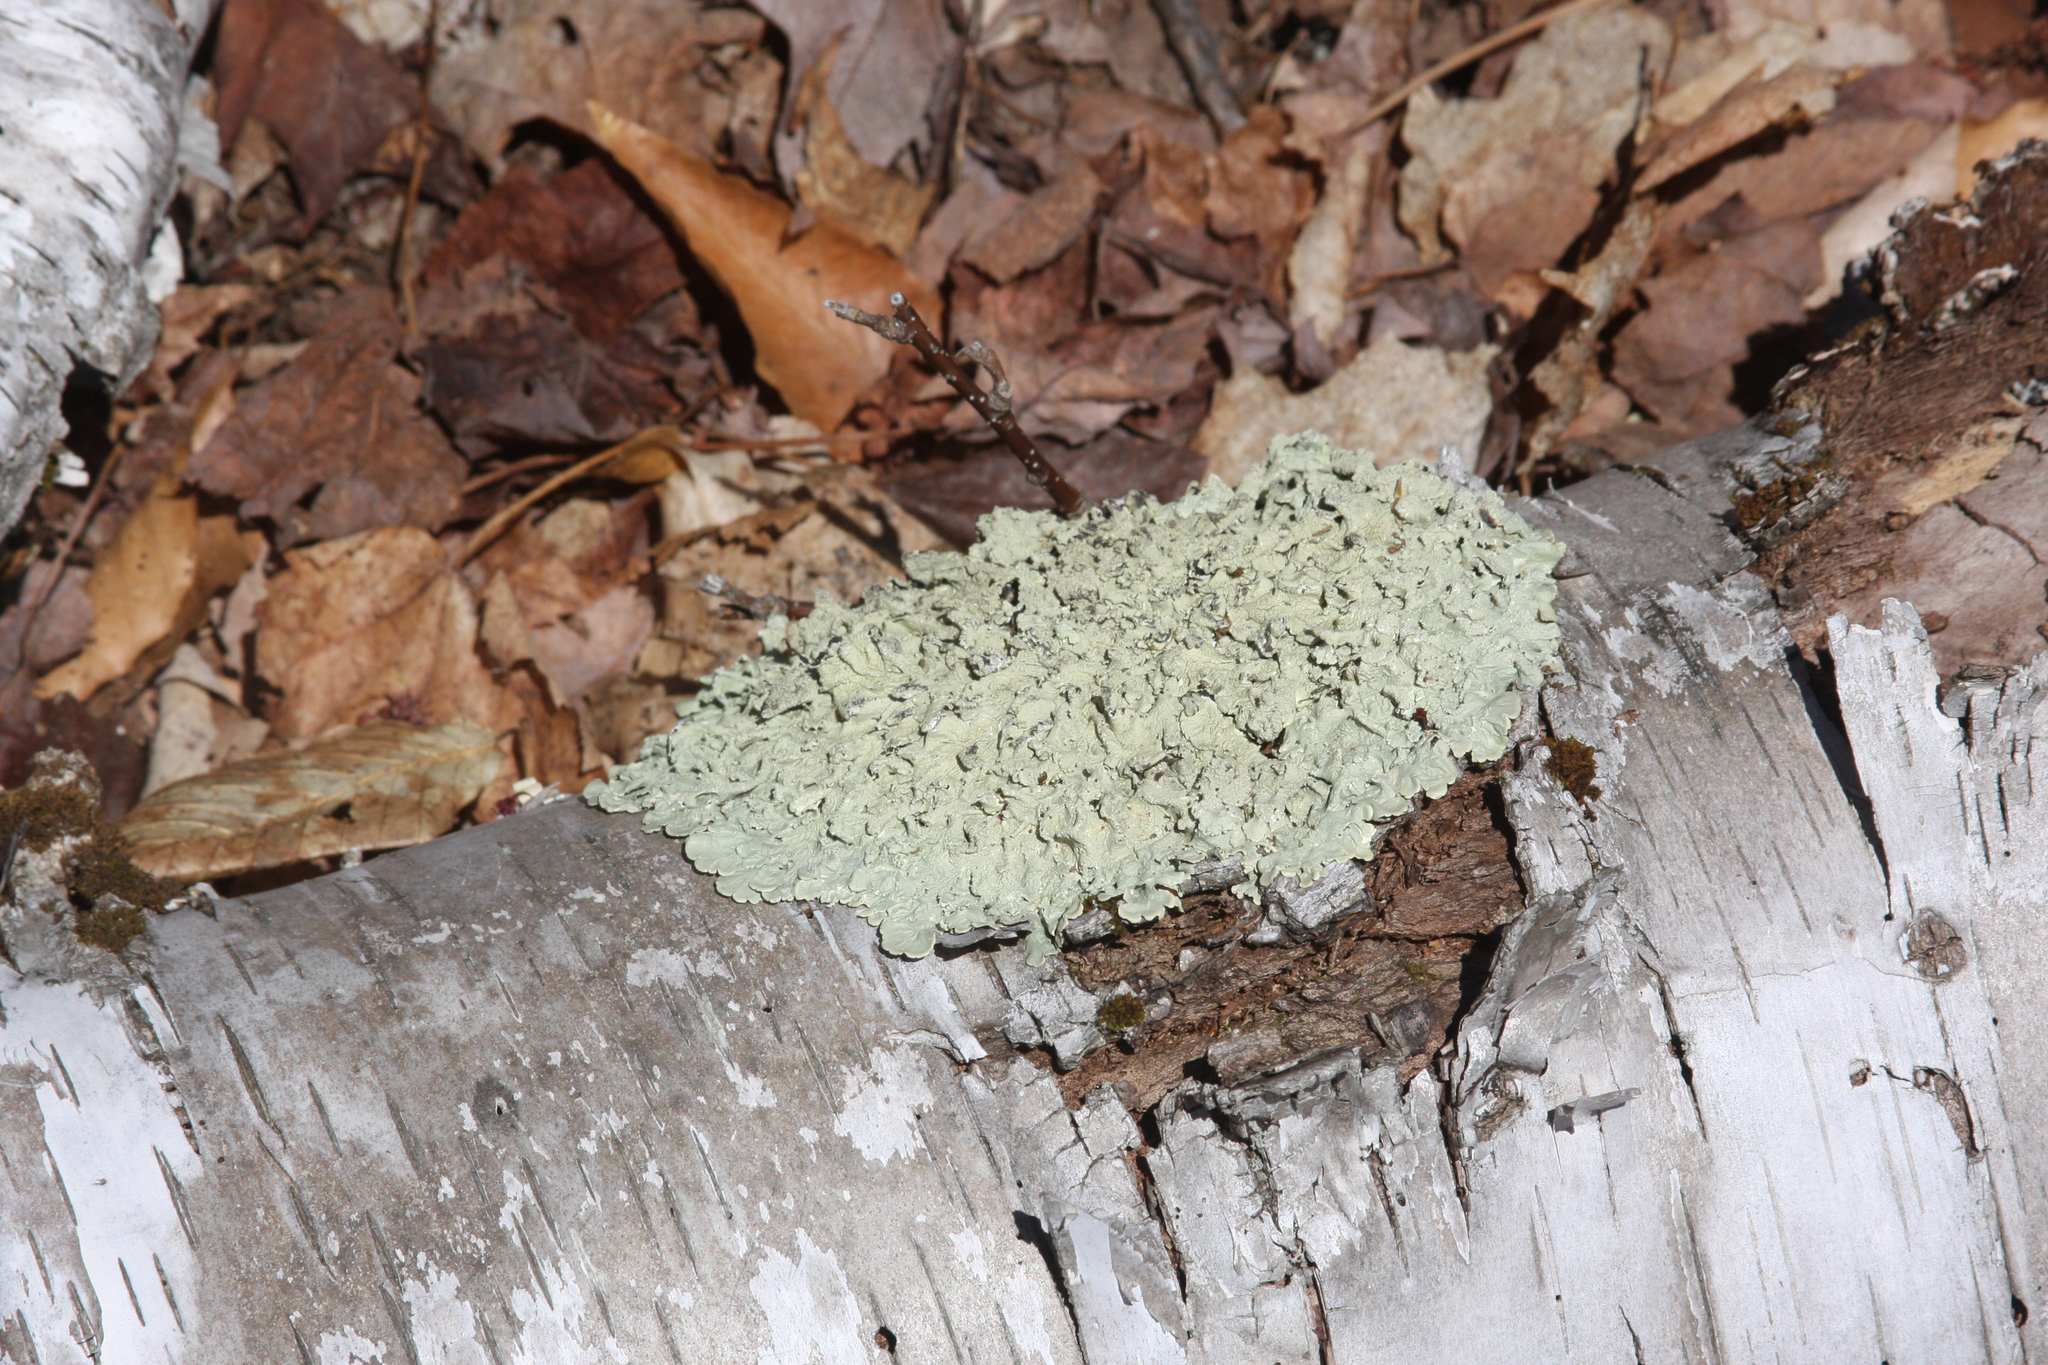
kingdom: Fungi
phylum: Ascomycota
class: Lecanoromycetes
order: Lecanorales
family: Parmeliaceae
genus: Flavoparmelia
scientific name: Flavoparmelia caperata
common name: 40-mile per hour lichen
